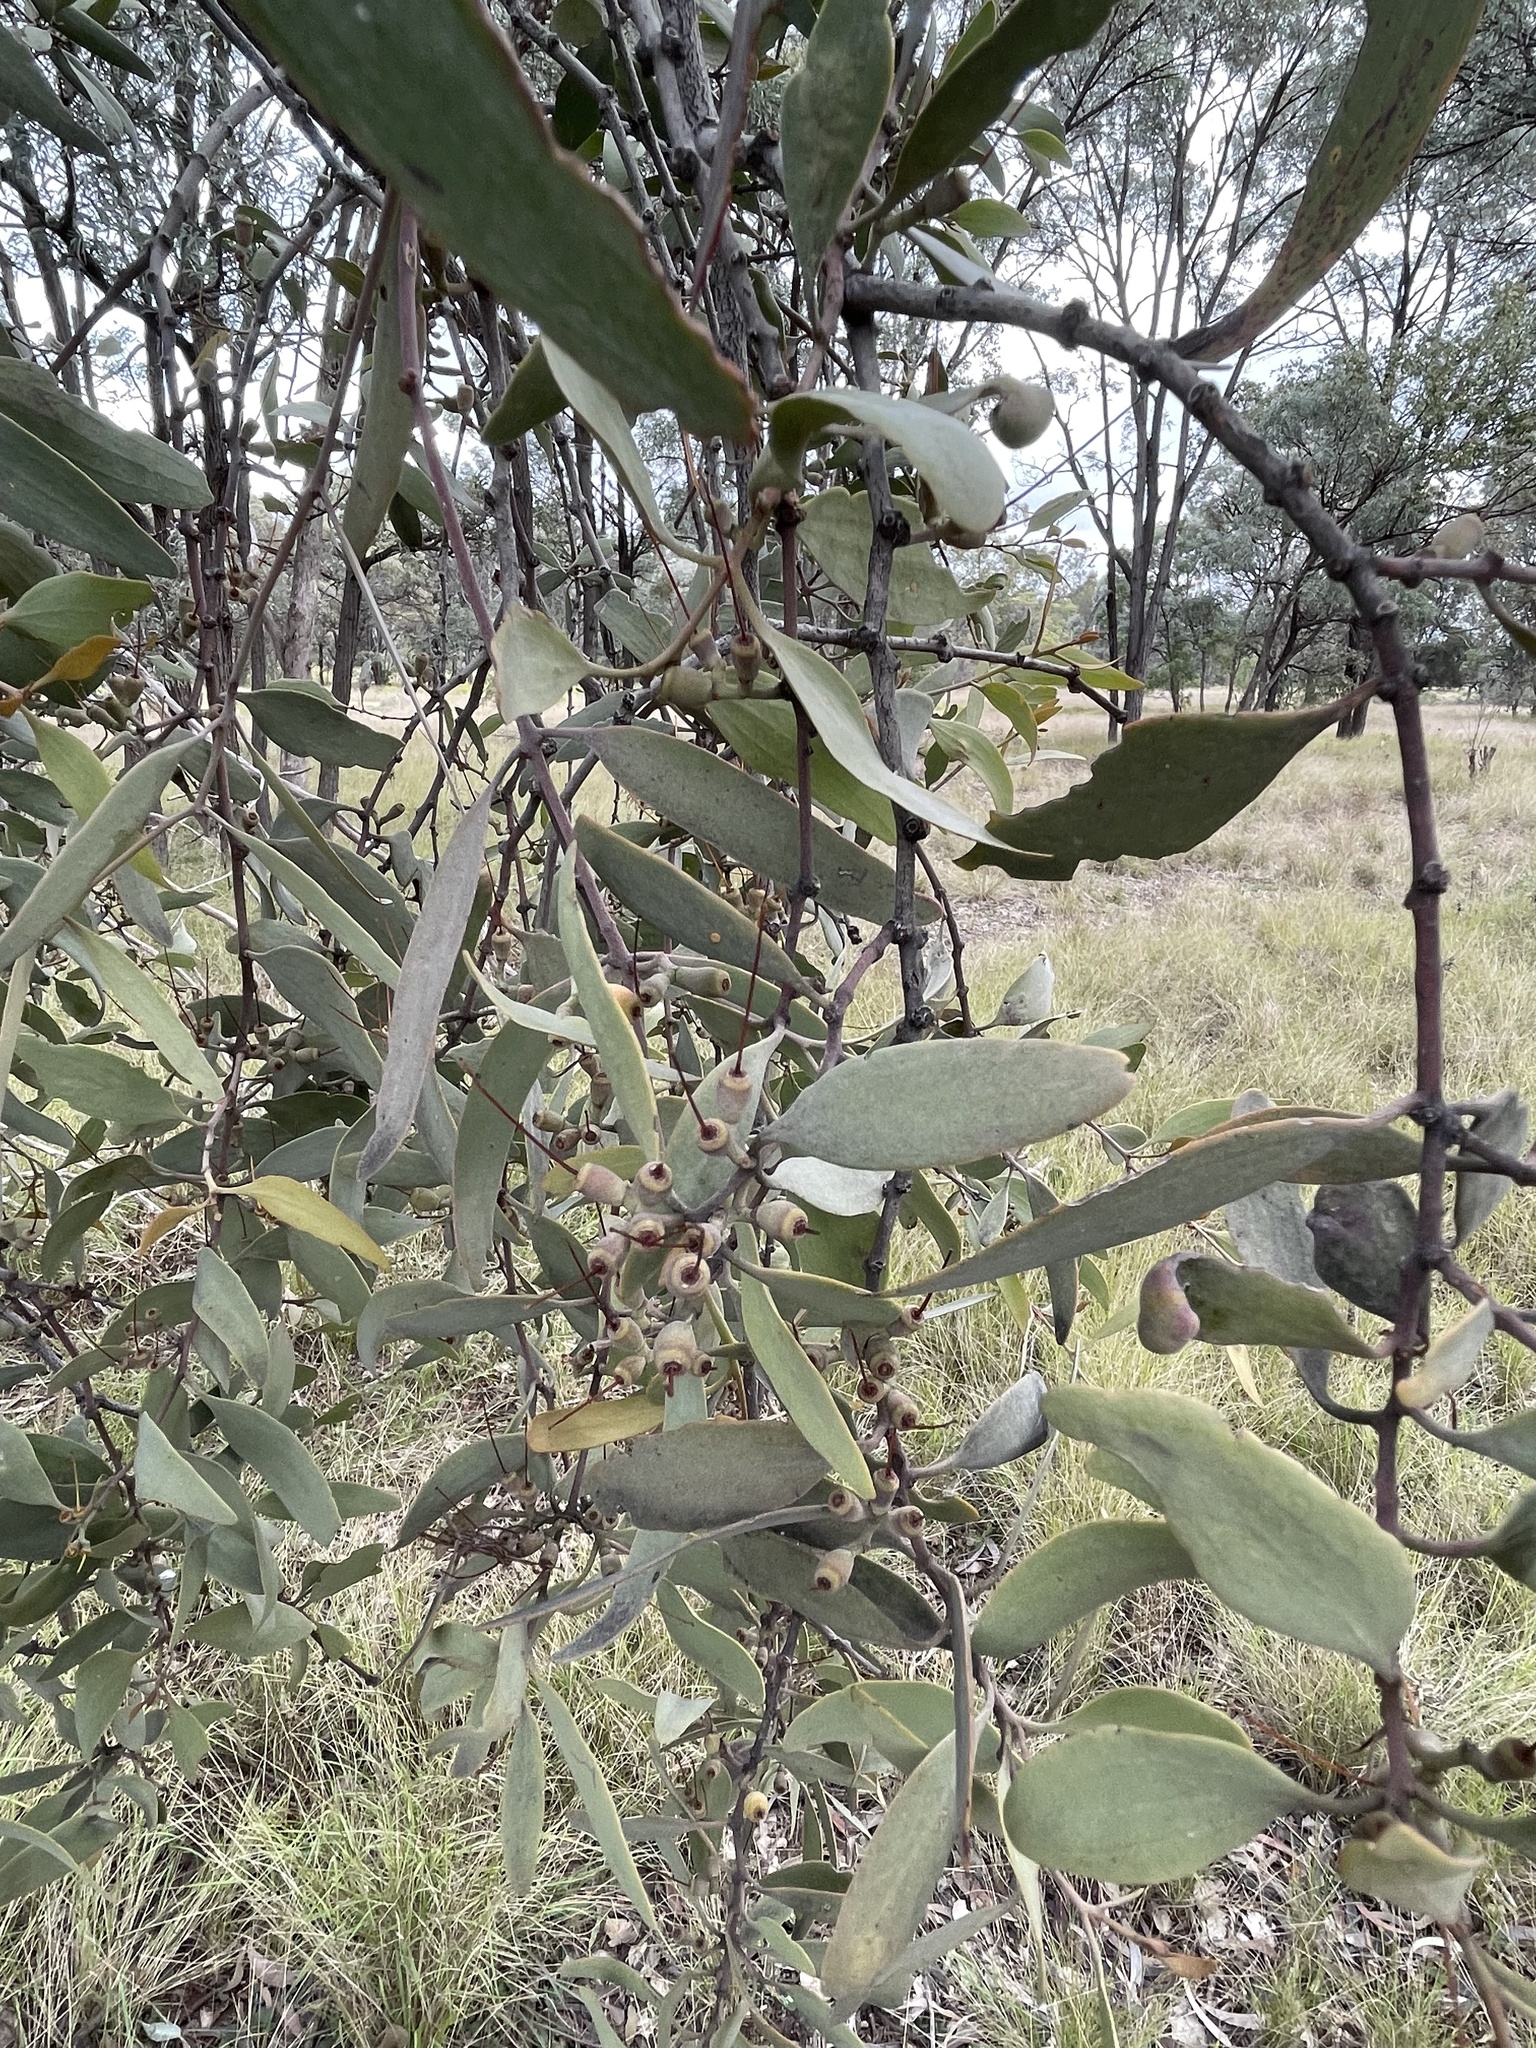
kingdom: Plantae
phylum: Tracheophyta
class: Magnoliopsida
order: Santalales
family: Loranthaceae
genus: Amyema
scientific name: Amyema quandang
